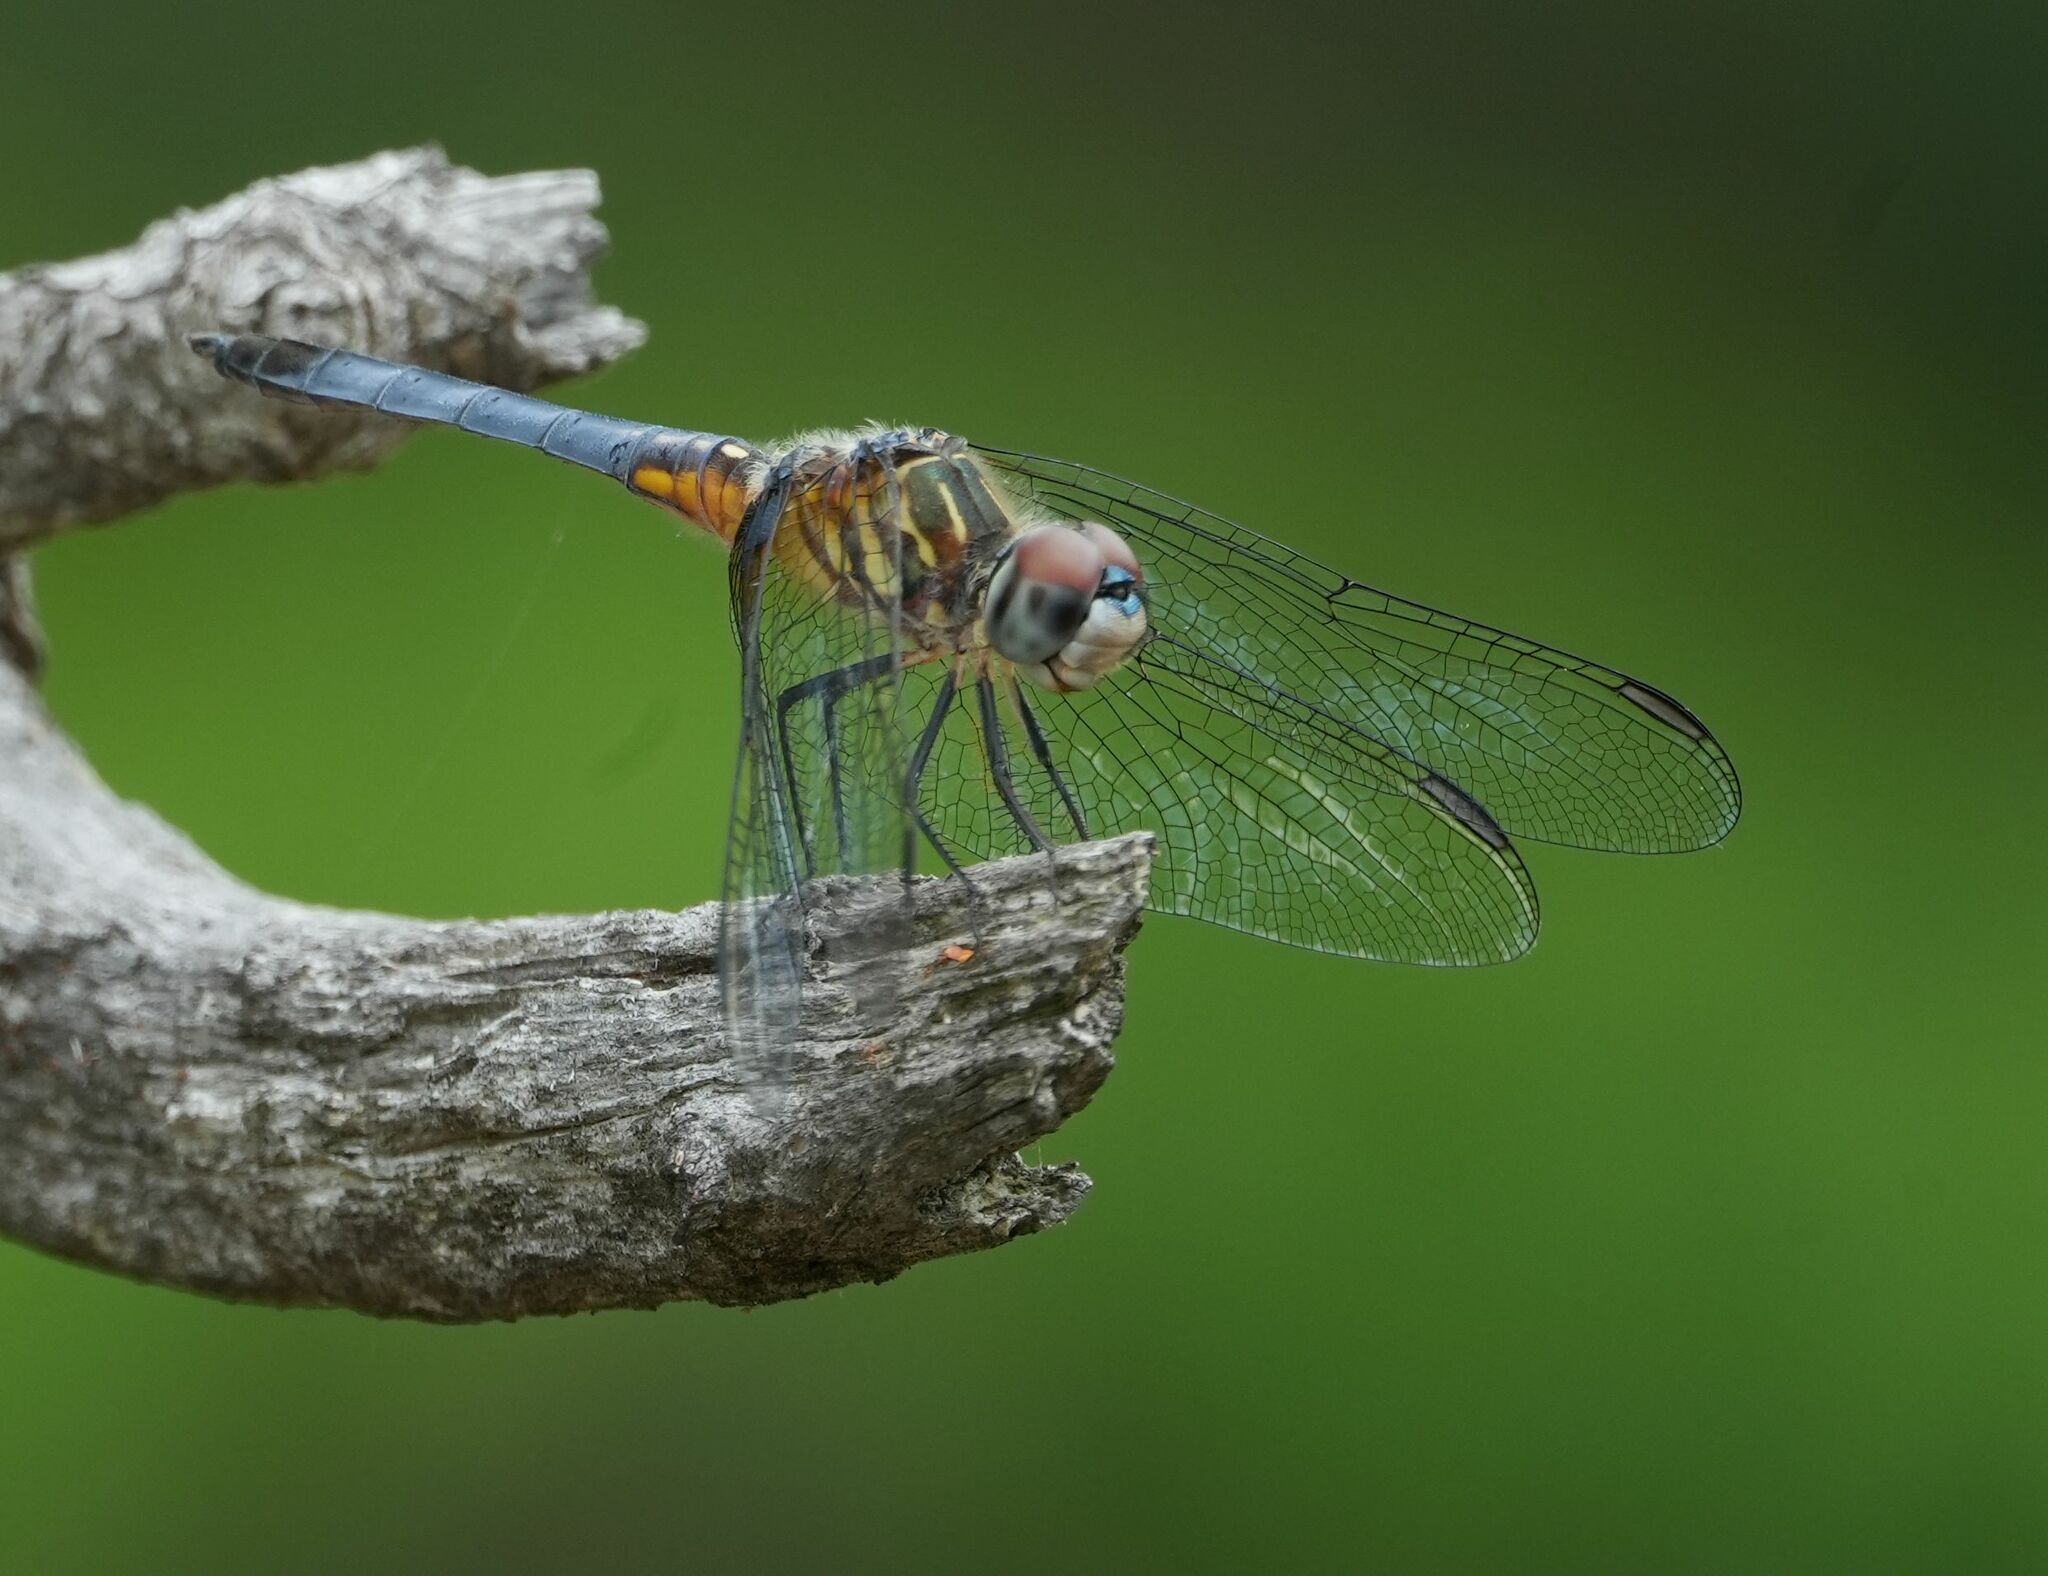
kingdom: Animalia
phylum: Arthropoda
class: Insecta
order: Odonata
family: Libellulidae
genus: Pachydiplax
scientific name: Pachydiplax longipennis
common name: Blue dasher
